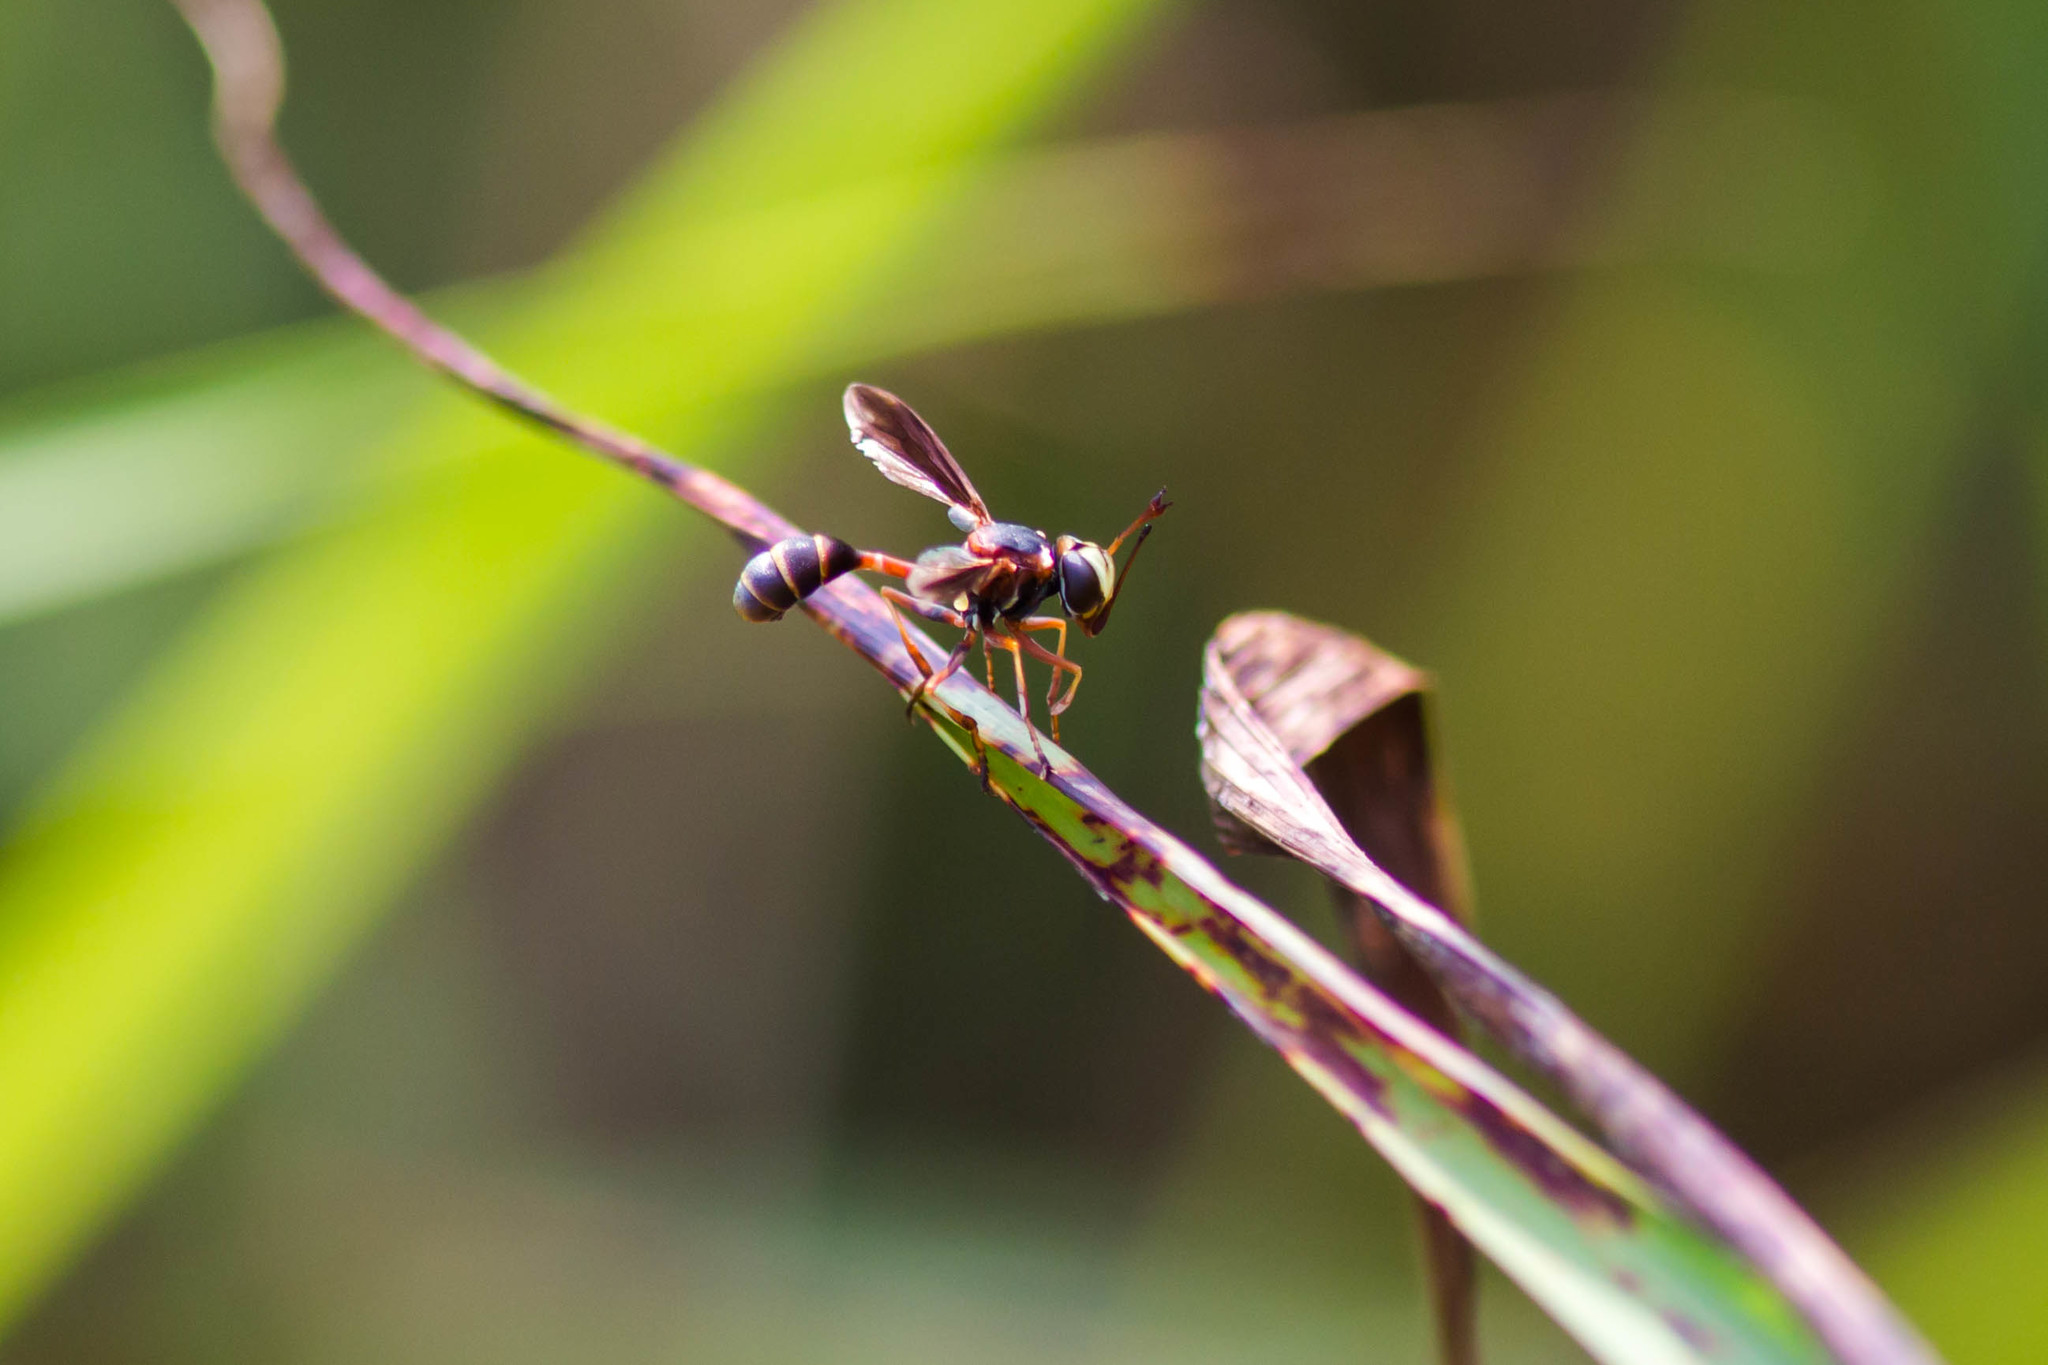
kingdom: Animalia
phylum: Arthropoda
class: Insecta
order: Diptera
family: Conopidae
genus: Physocephala
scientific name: Physocephala sagittaria
